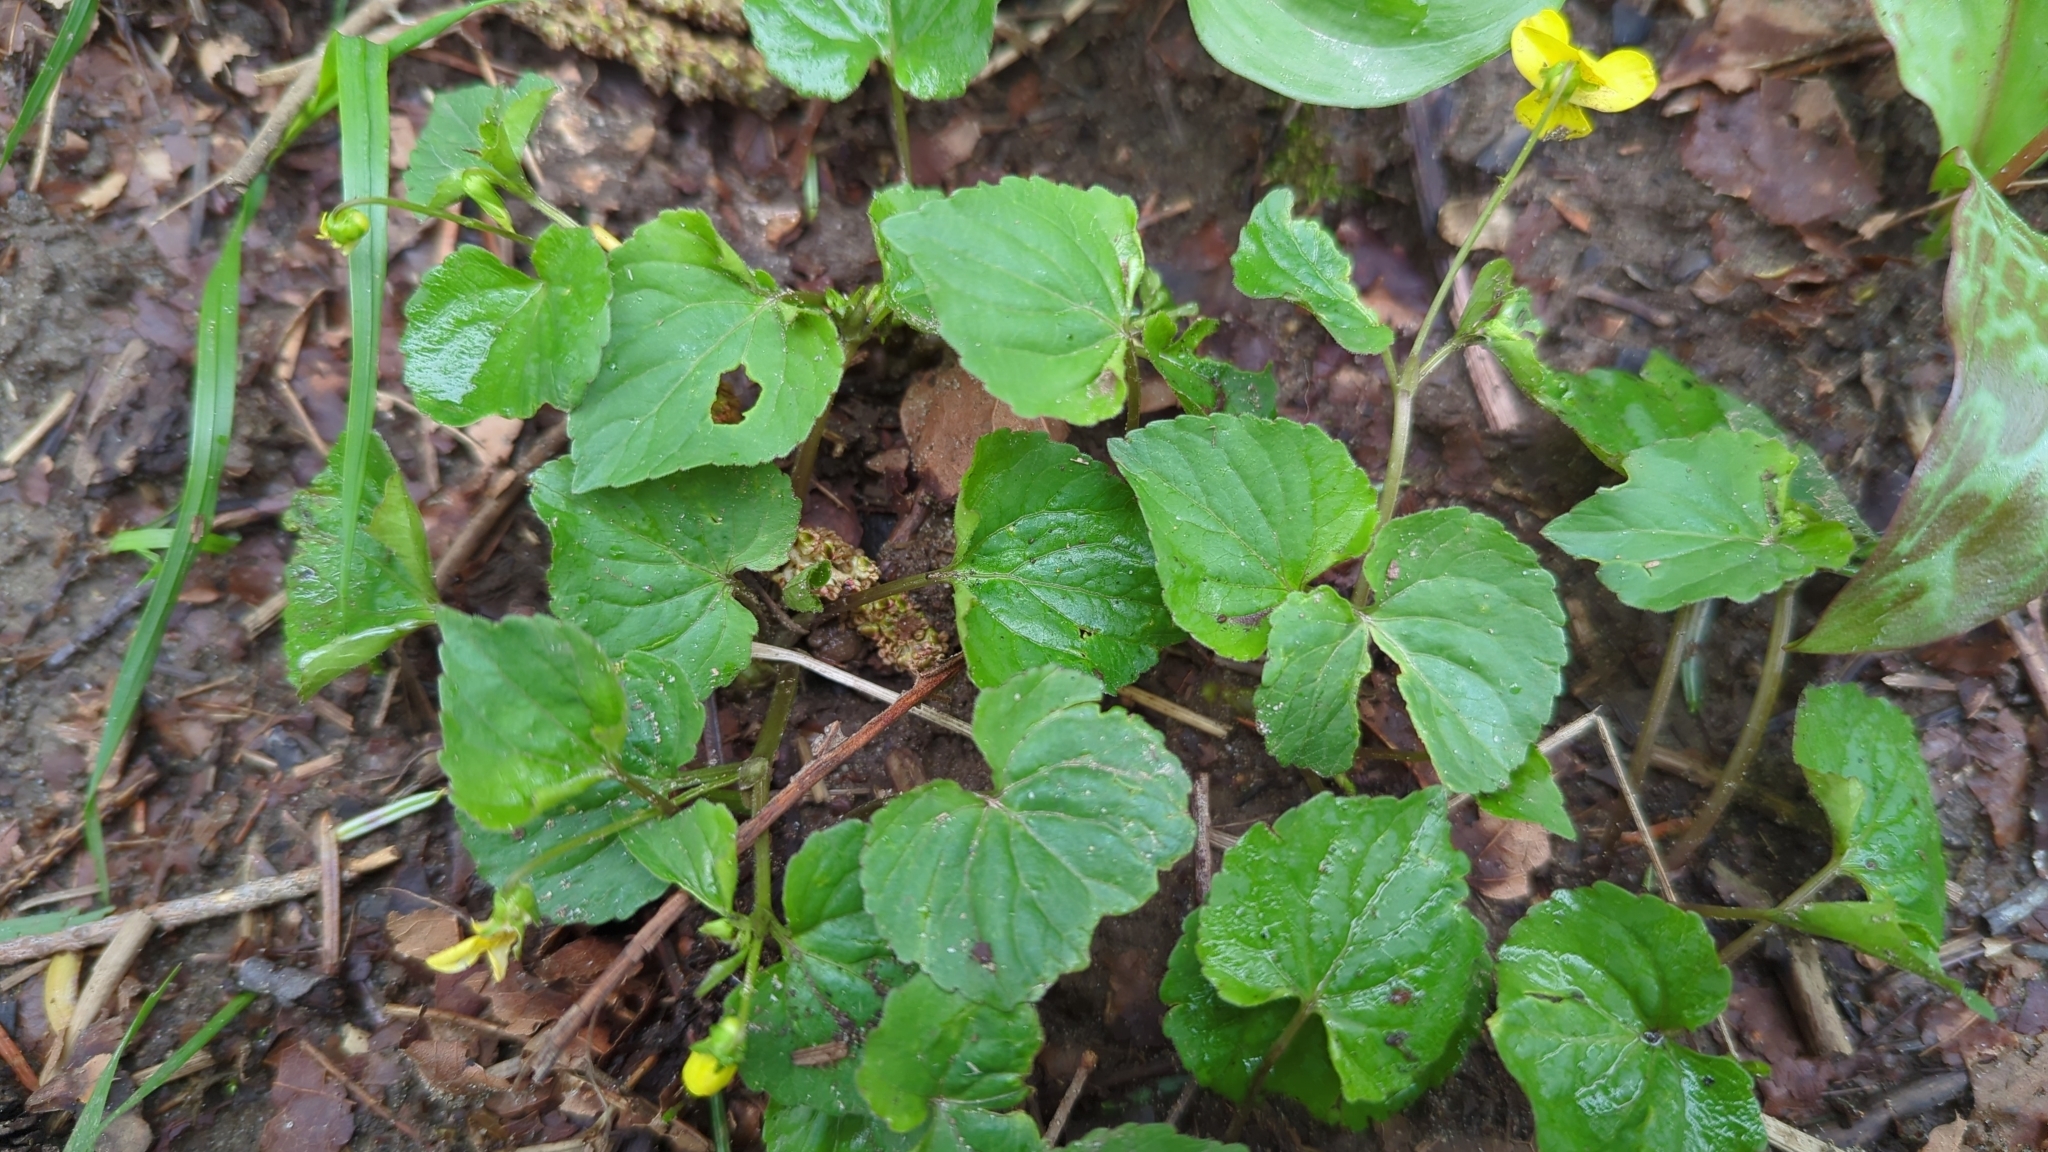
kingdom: Plantae
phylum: Tracheophyta
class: Magnoliopsida
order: Malpighiales
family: Violaceae
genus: Viola
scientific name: Viola glabella
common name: Stream violet
